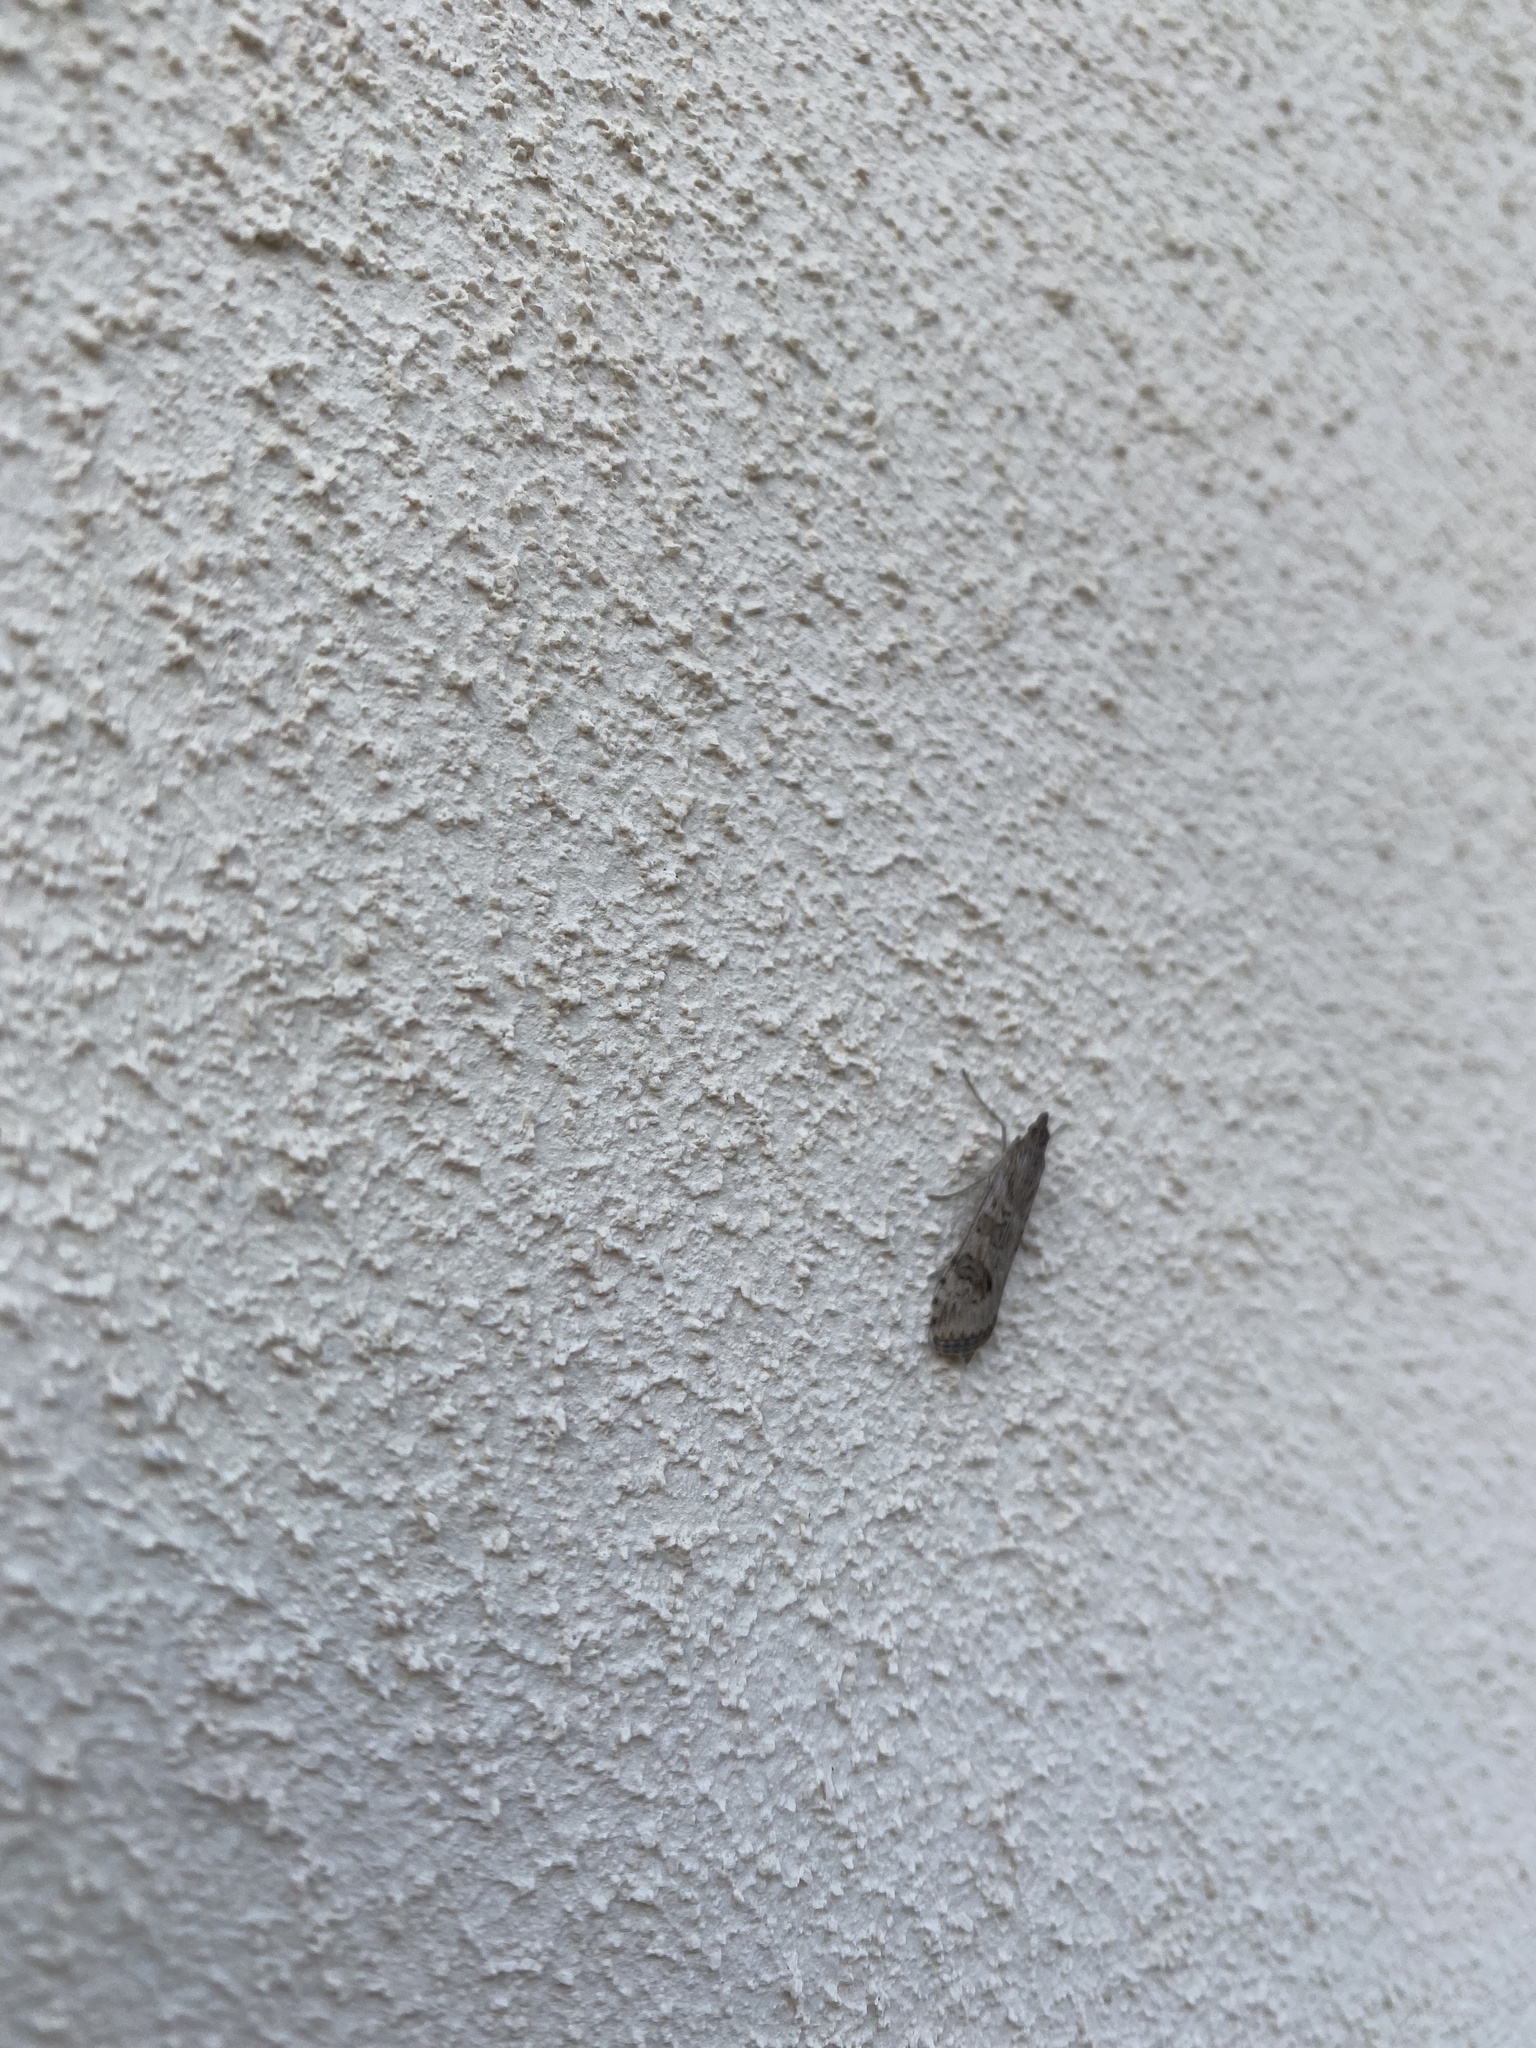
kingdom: Animalia
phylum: Arthropoda
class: Insecta
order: Lepidoptera
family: Crambidae
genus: Nomophila
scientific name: Nomophila noctuella
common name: Rush veneer
